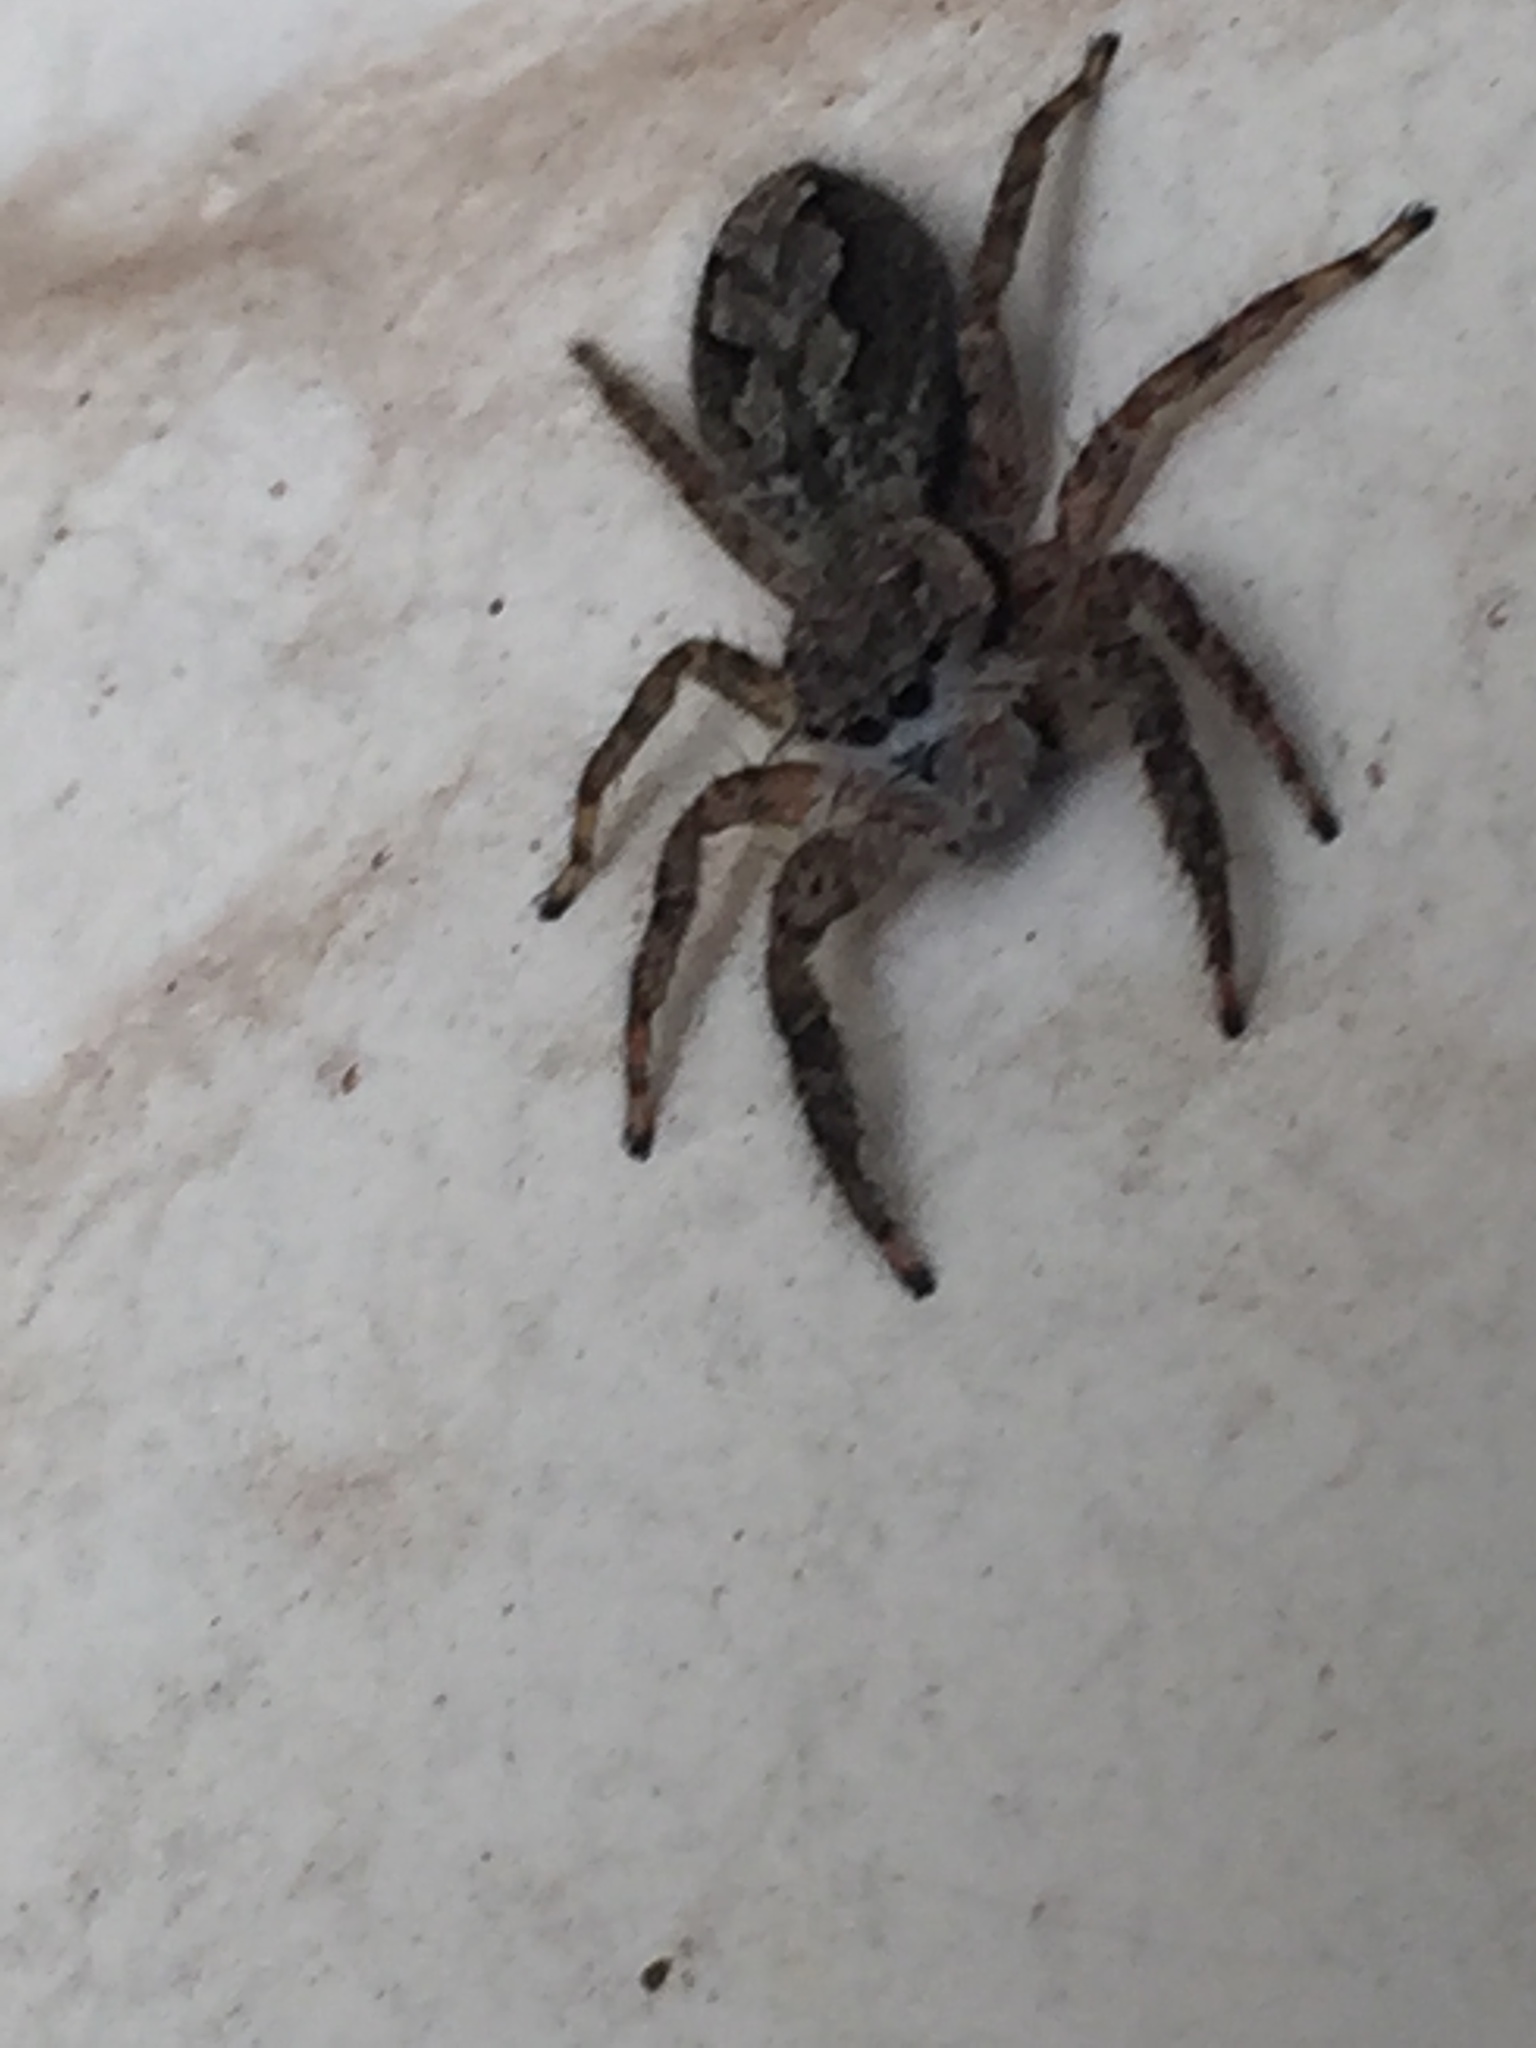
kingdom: Animalia
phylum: Arthropoda
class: Arachnida
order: Araneae
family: Salticidae
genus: Platycryptus
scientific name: Platycryptus undatus
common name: Tan jumping spider
